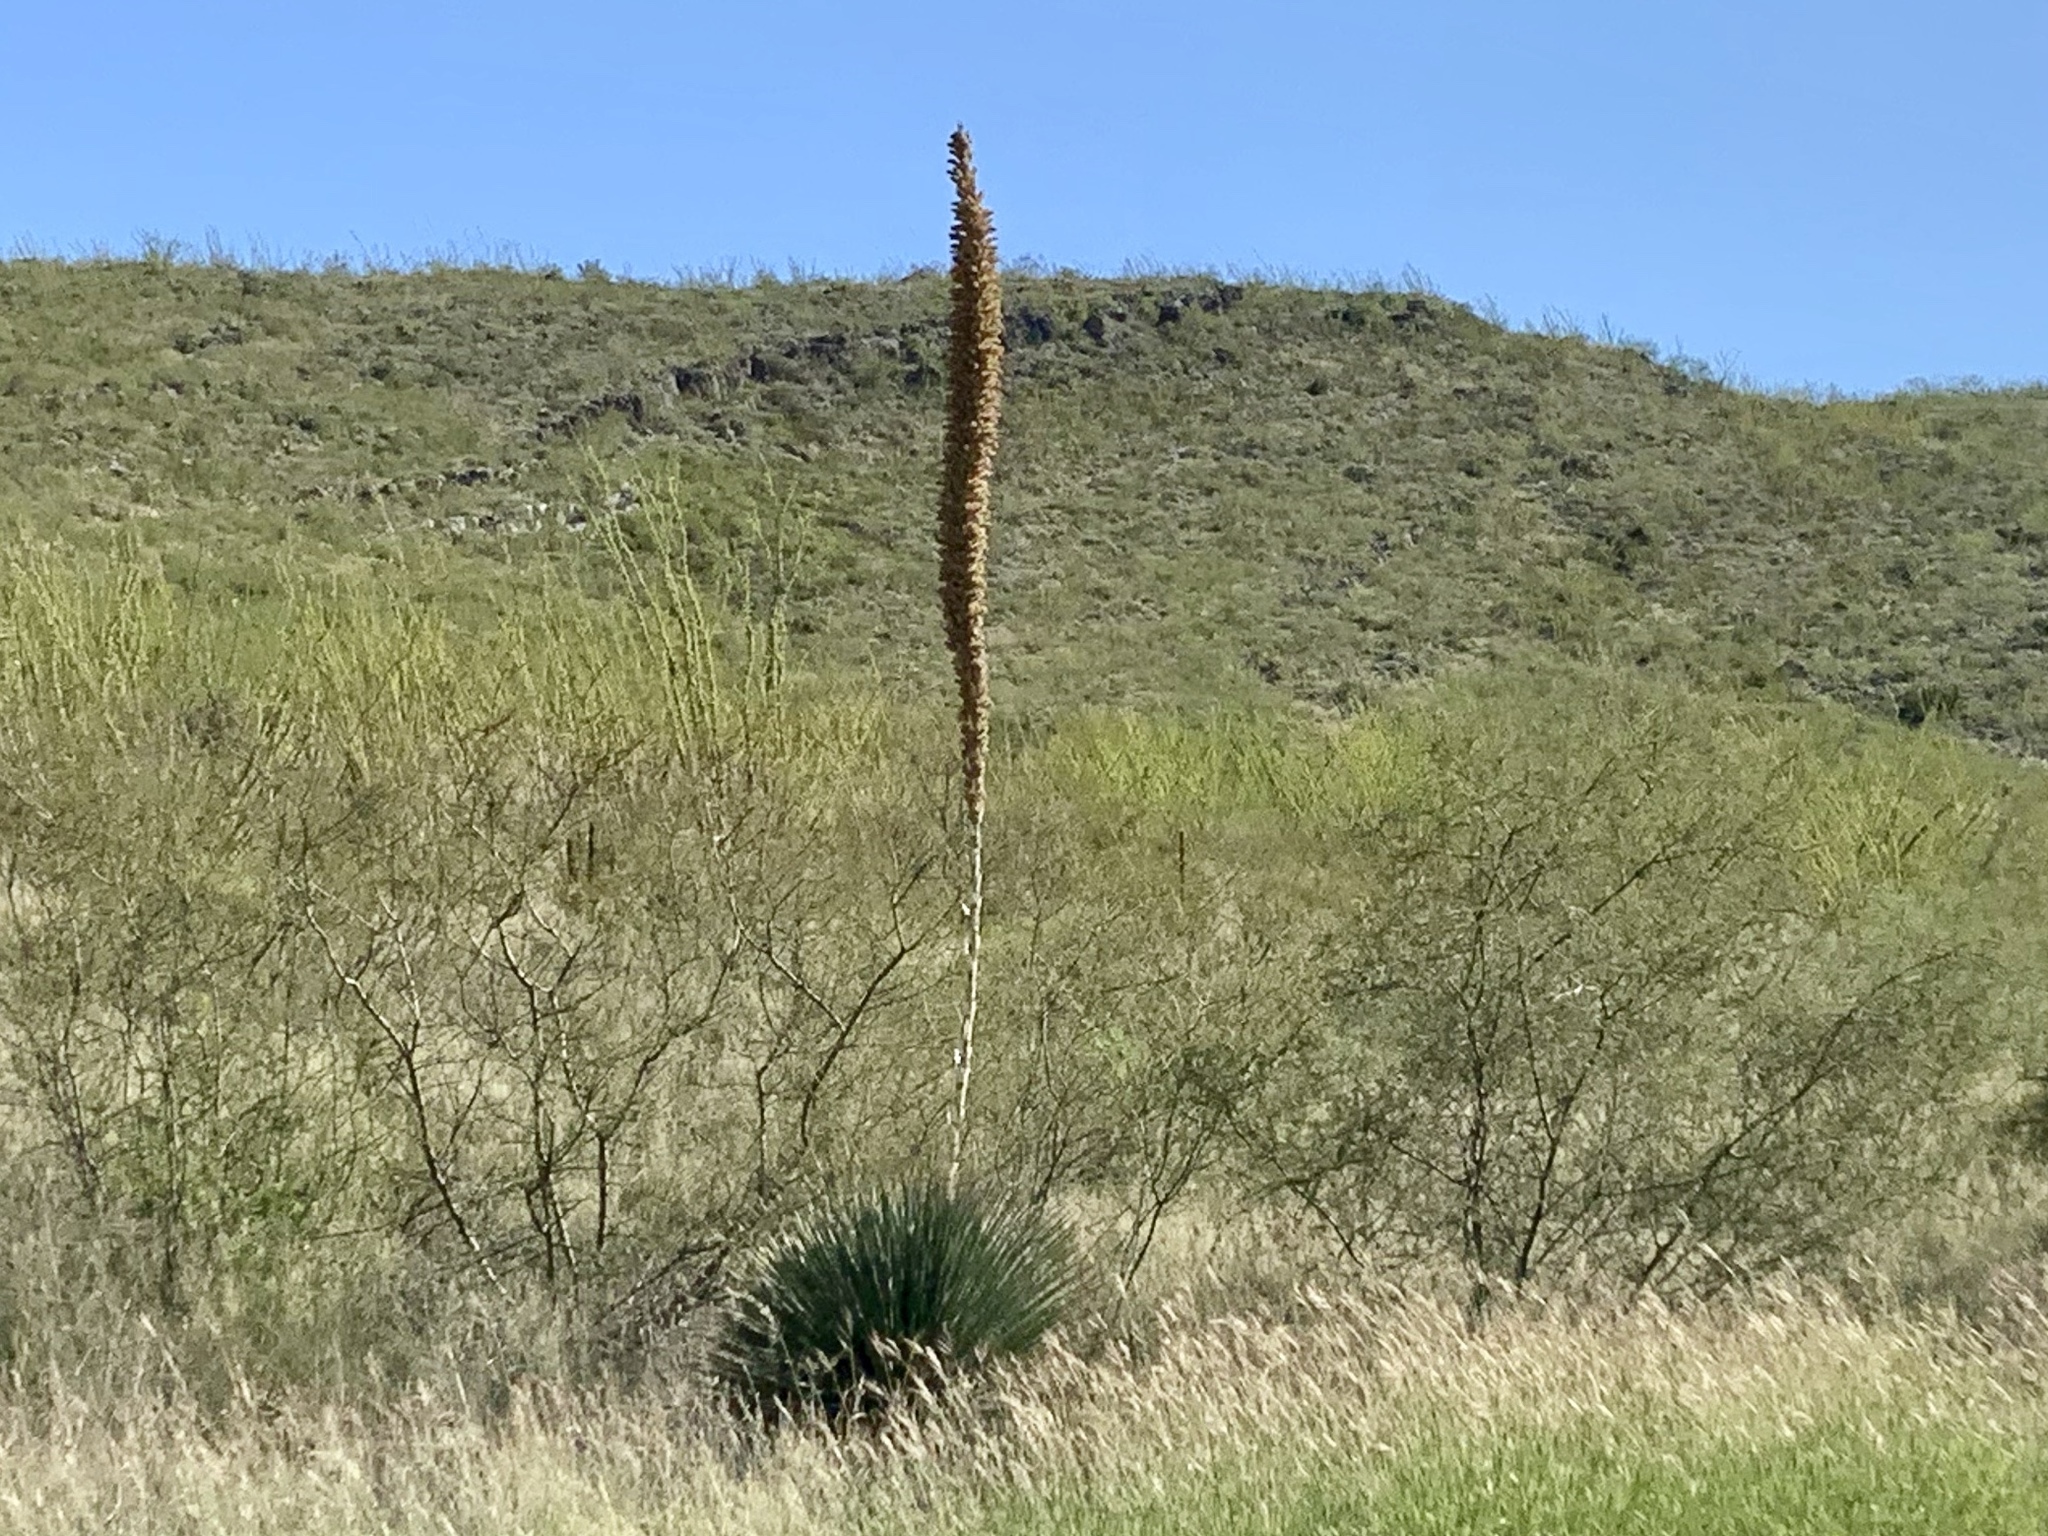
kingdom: Plantae
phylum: Tracheophyta
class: Liliopsida
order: Asparagales
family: Asparagaceae
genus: Dasylirion
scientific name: Dasylirion wheeleri
